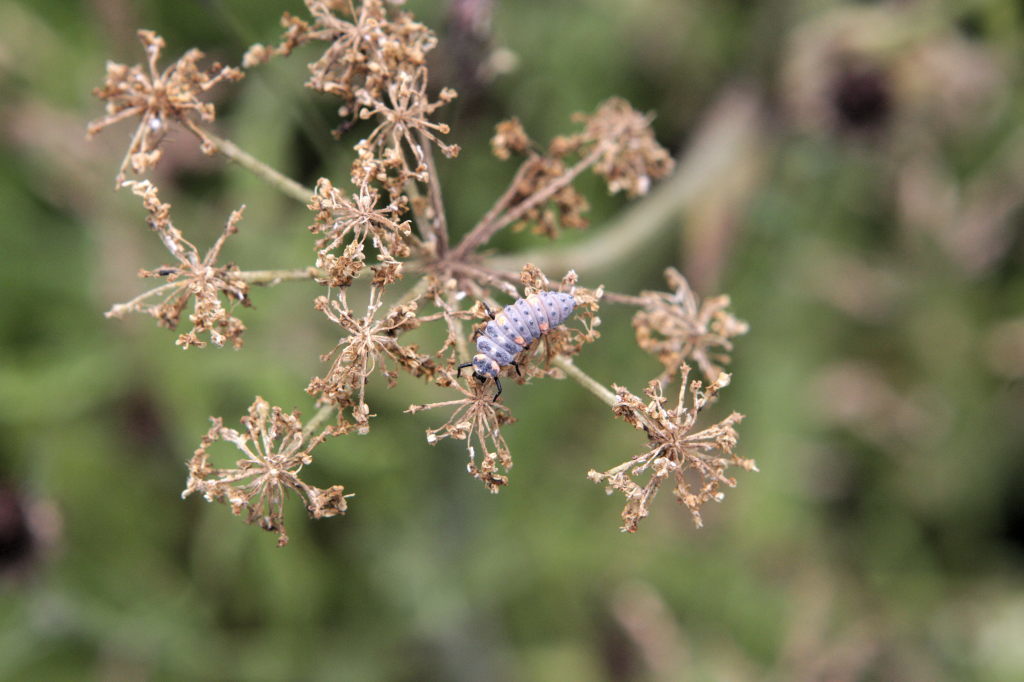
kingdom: Animalia
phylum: Arthropoda
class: Insecta
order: Coleoptera
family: Coccinellidae
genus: Coccinella
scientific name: Coccinella septempunctata
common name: Sevenspotted lady beetle
